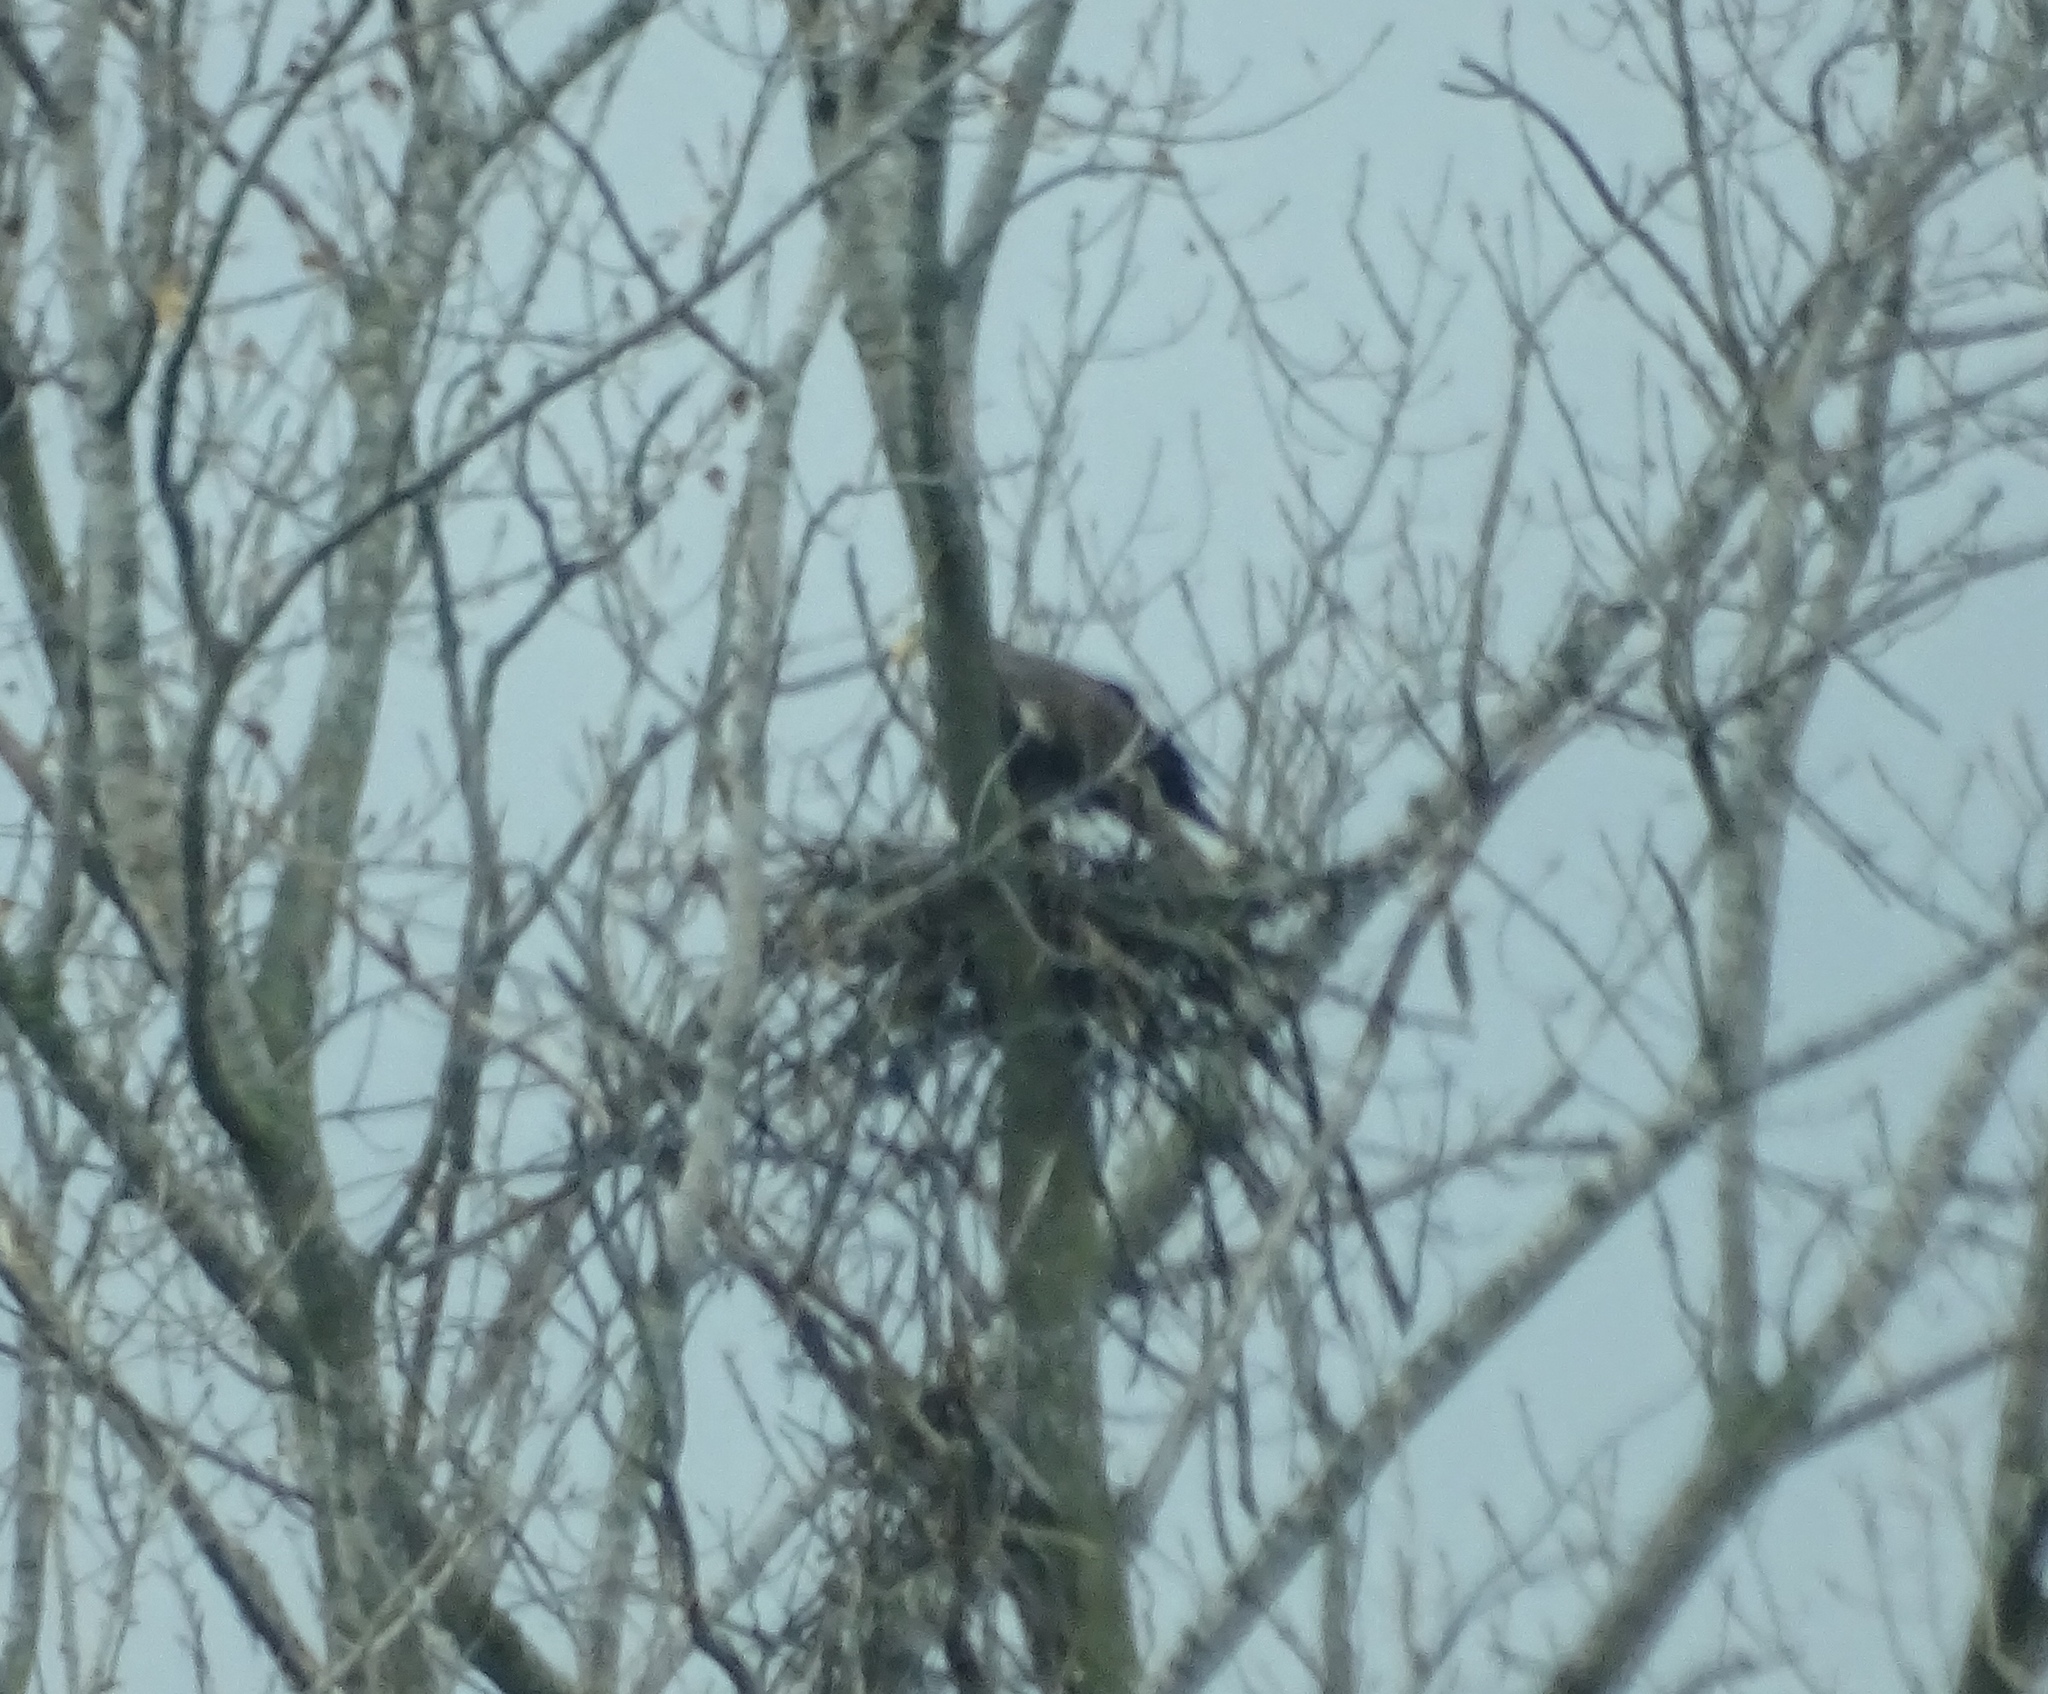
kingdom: Animalia
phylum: Chordata
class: Aves
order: Accipitriformes
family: Accipitridae
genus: Haliaeetus
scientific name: Haliaeetus leucocephalus
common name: Bald eagle
